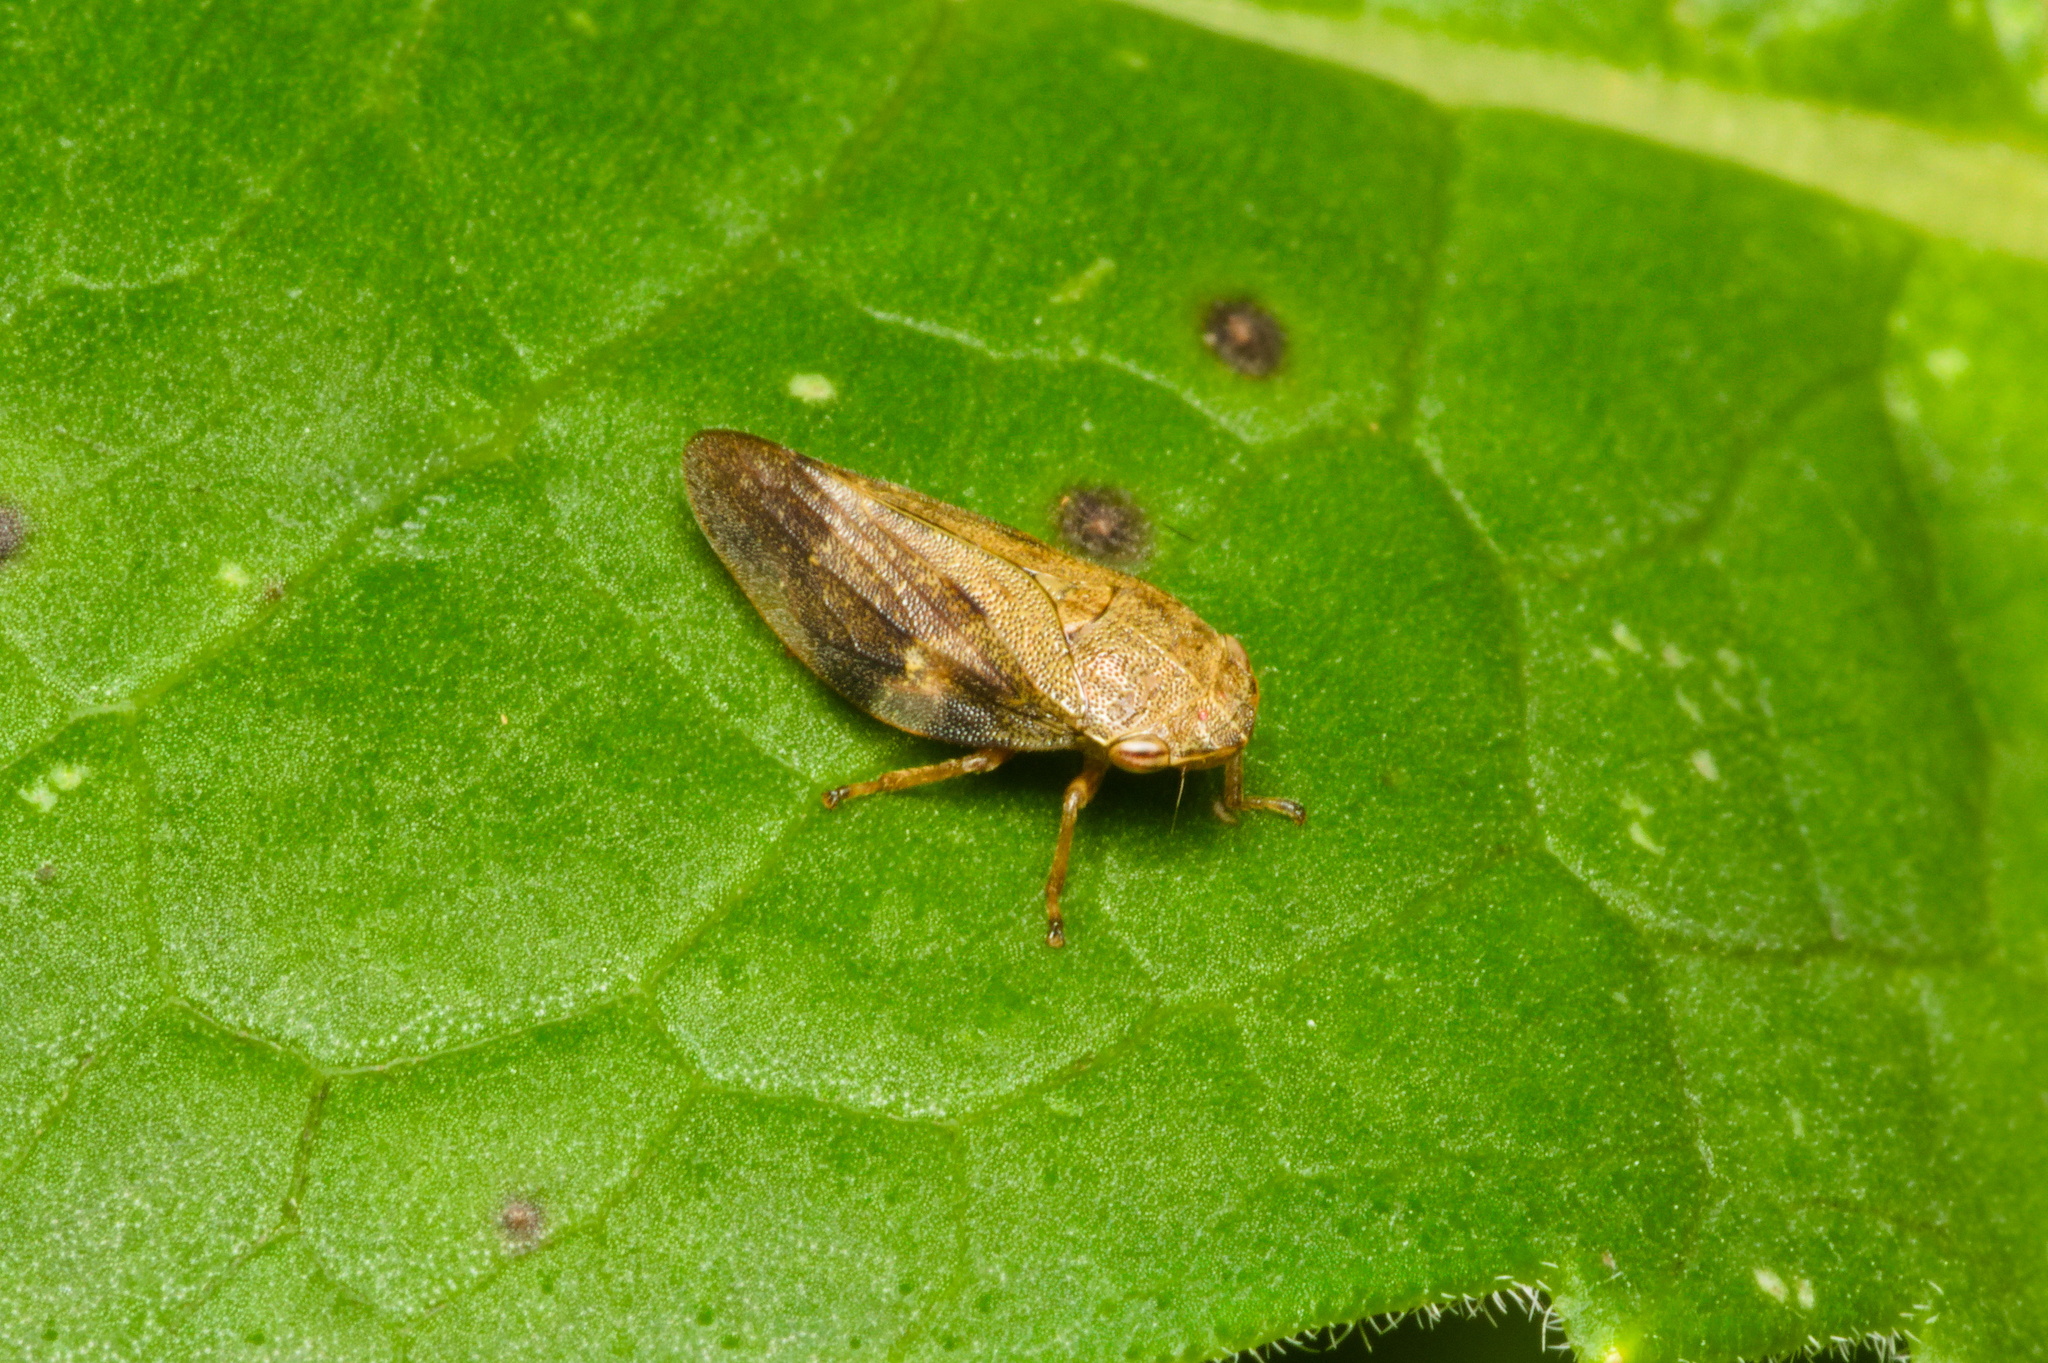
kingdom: Animalia
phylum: Arthropoda
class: Insecta
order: Hemiptera
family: Aphrophoridae
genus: Aphrophora
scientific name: Aphrophora alni
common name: European alder spittlebug
